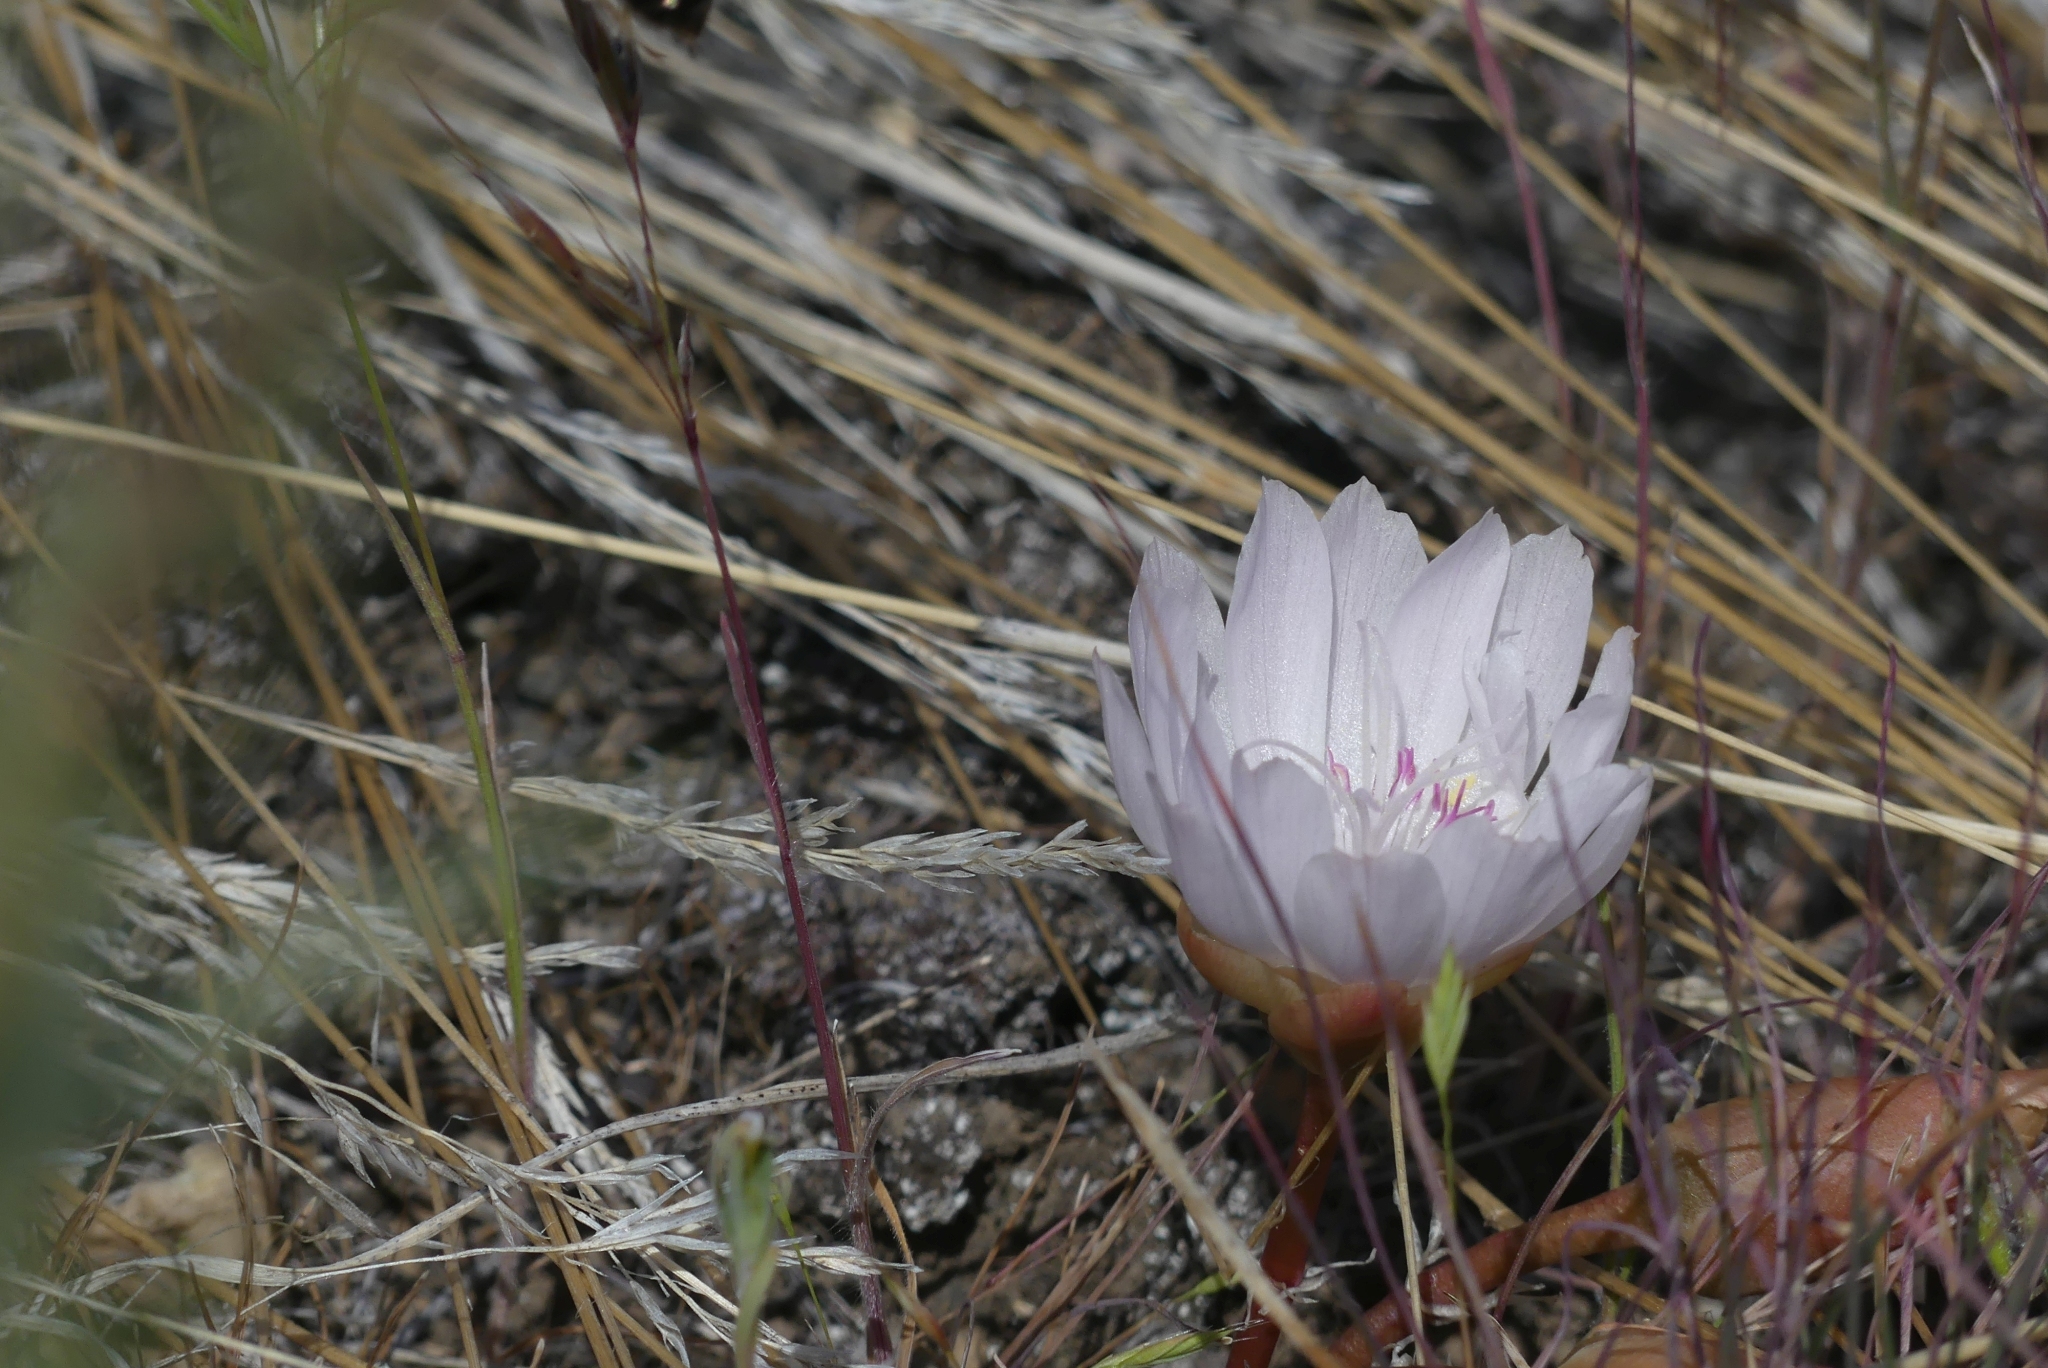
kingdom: Plantae
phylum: Tracheophyta
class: Magnoliopsida
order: Caryophyllales
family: Montiaceae
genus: Lewisia
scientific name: Lewisia rediviva
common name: Bitter-root
